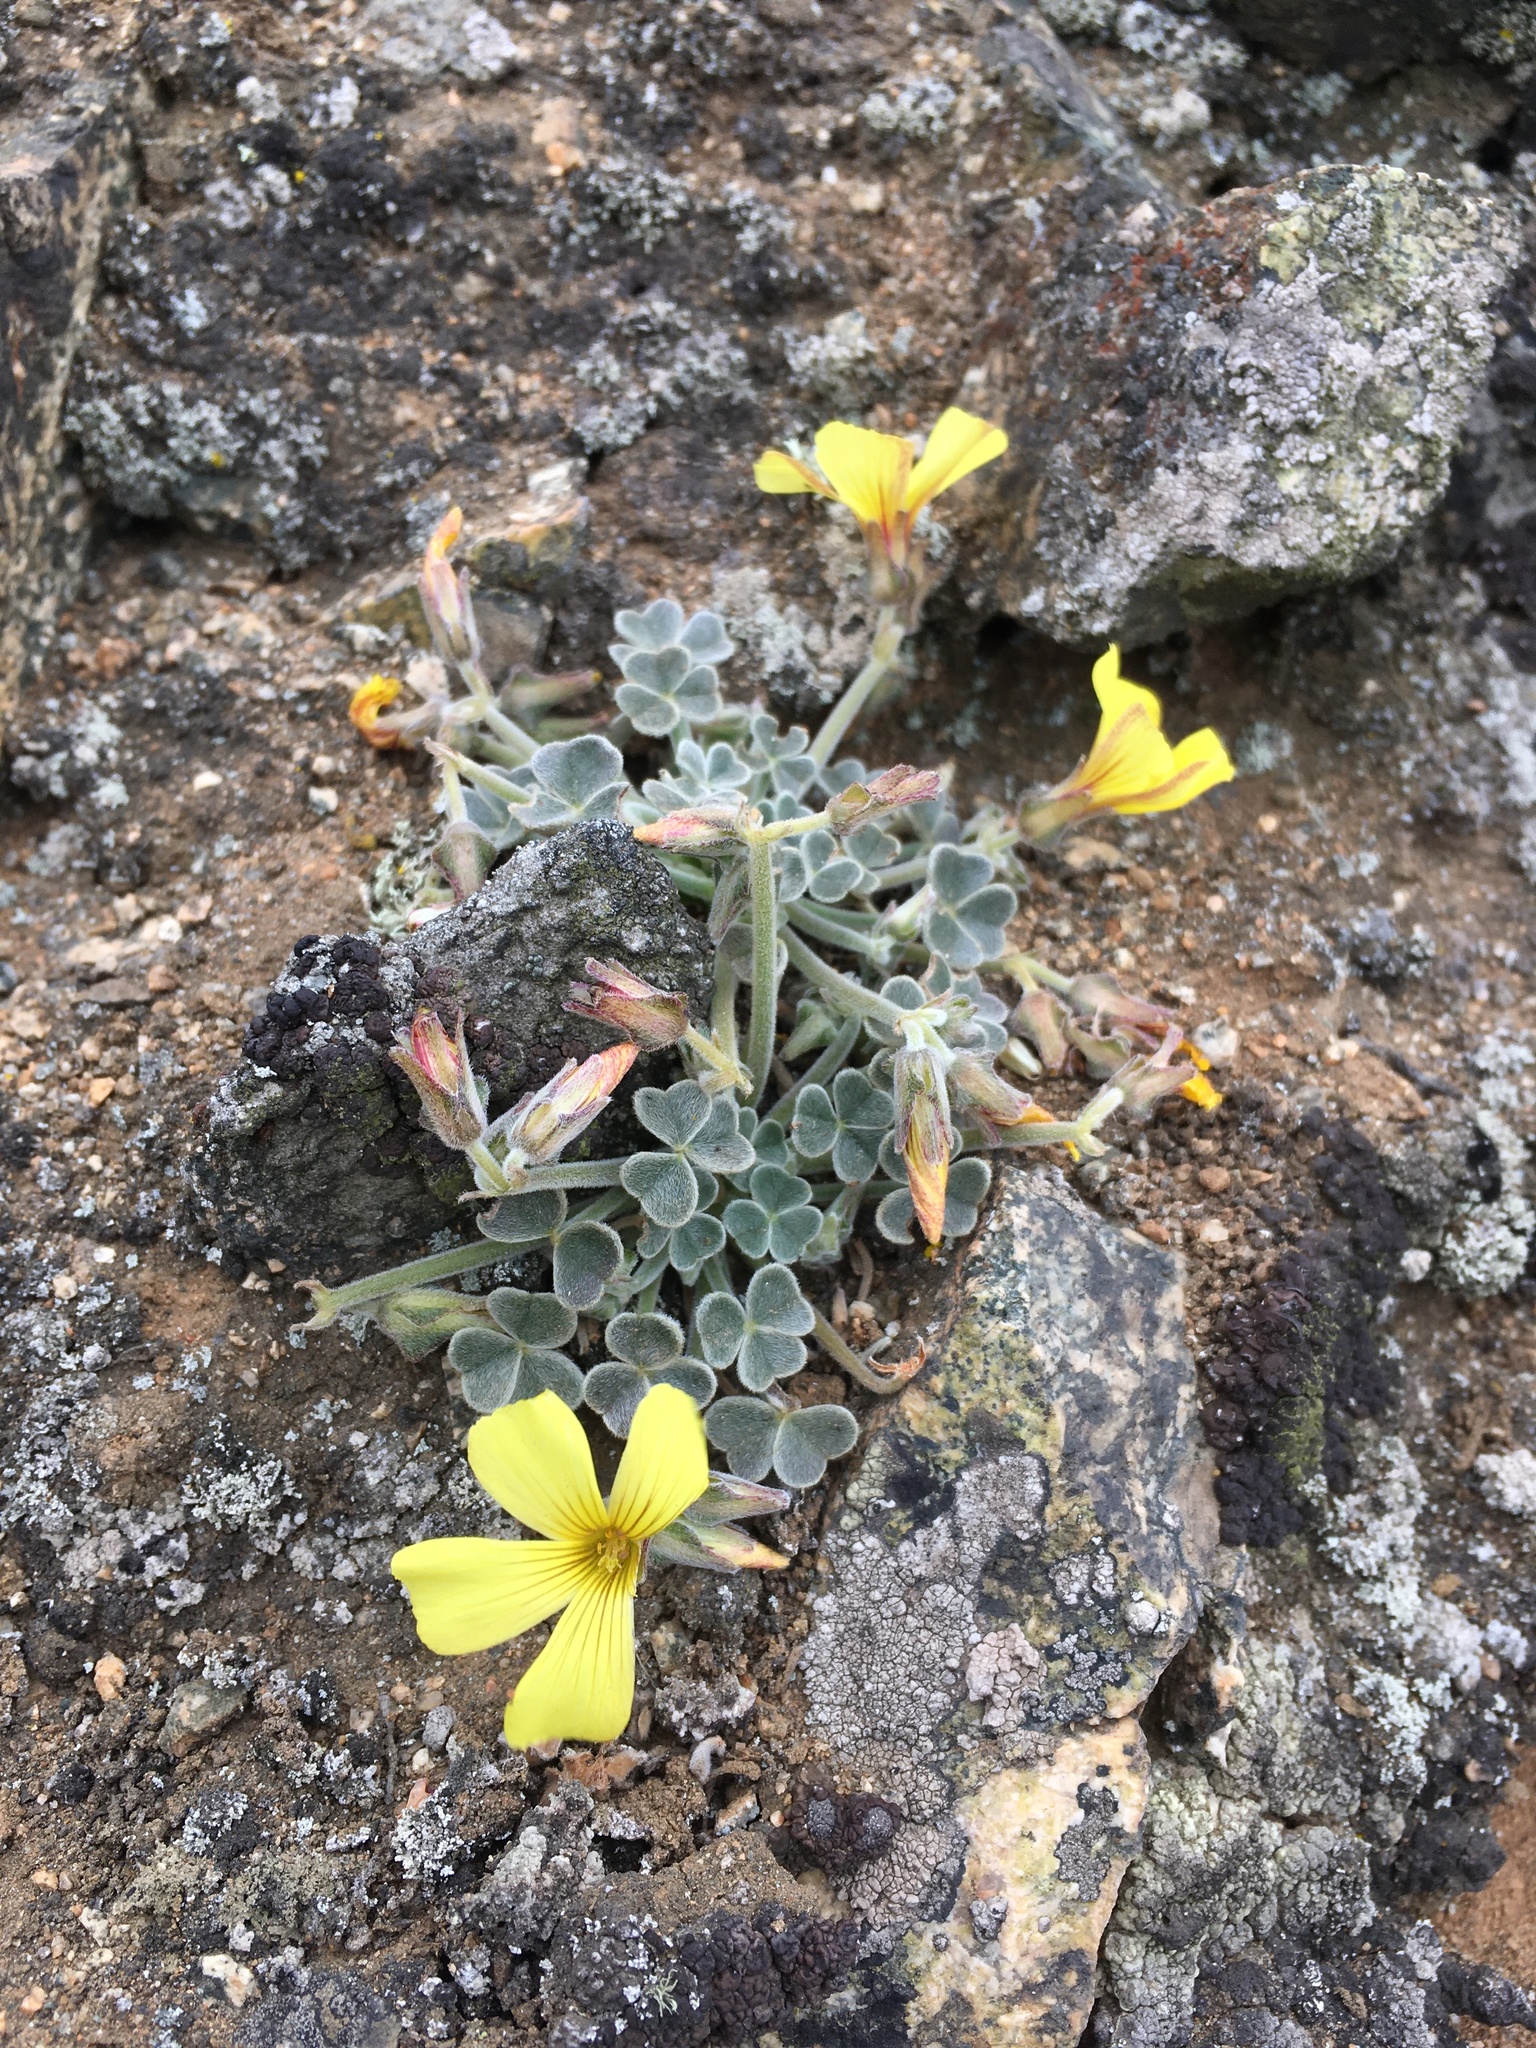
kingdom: Plantae
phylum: Tracheophyta
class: Magnoliopsida
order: Oxalidales
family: Oxalidaceae
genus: Oxalis
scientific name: Oxalis morenoensis
